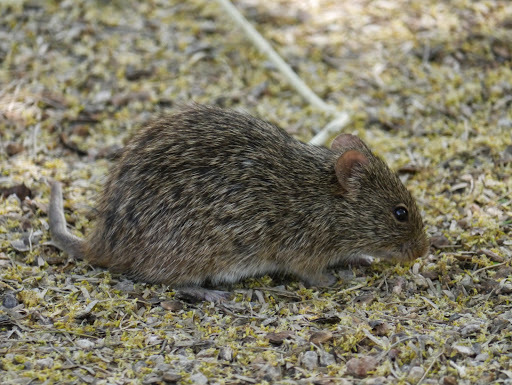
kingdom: Animalia
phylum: Chordata
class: Mammalia
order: Rodentia
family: Cricetidae
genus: Sigmodon
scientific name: Sigmodon arizonae
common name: Arizona cotton rat
